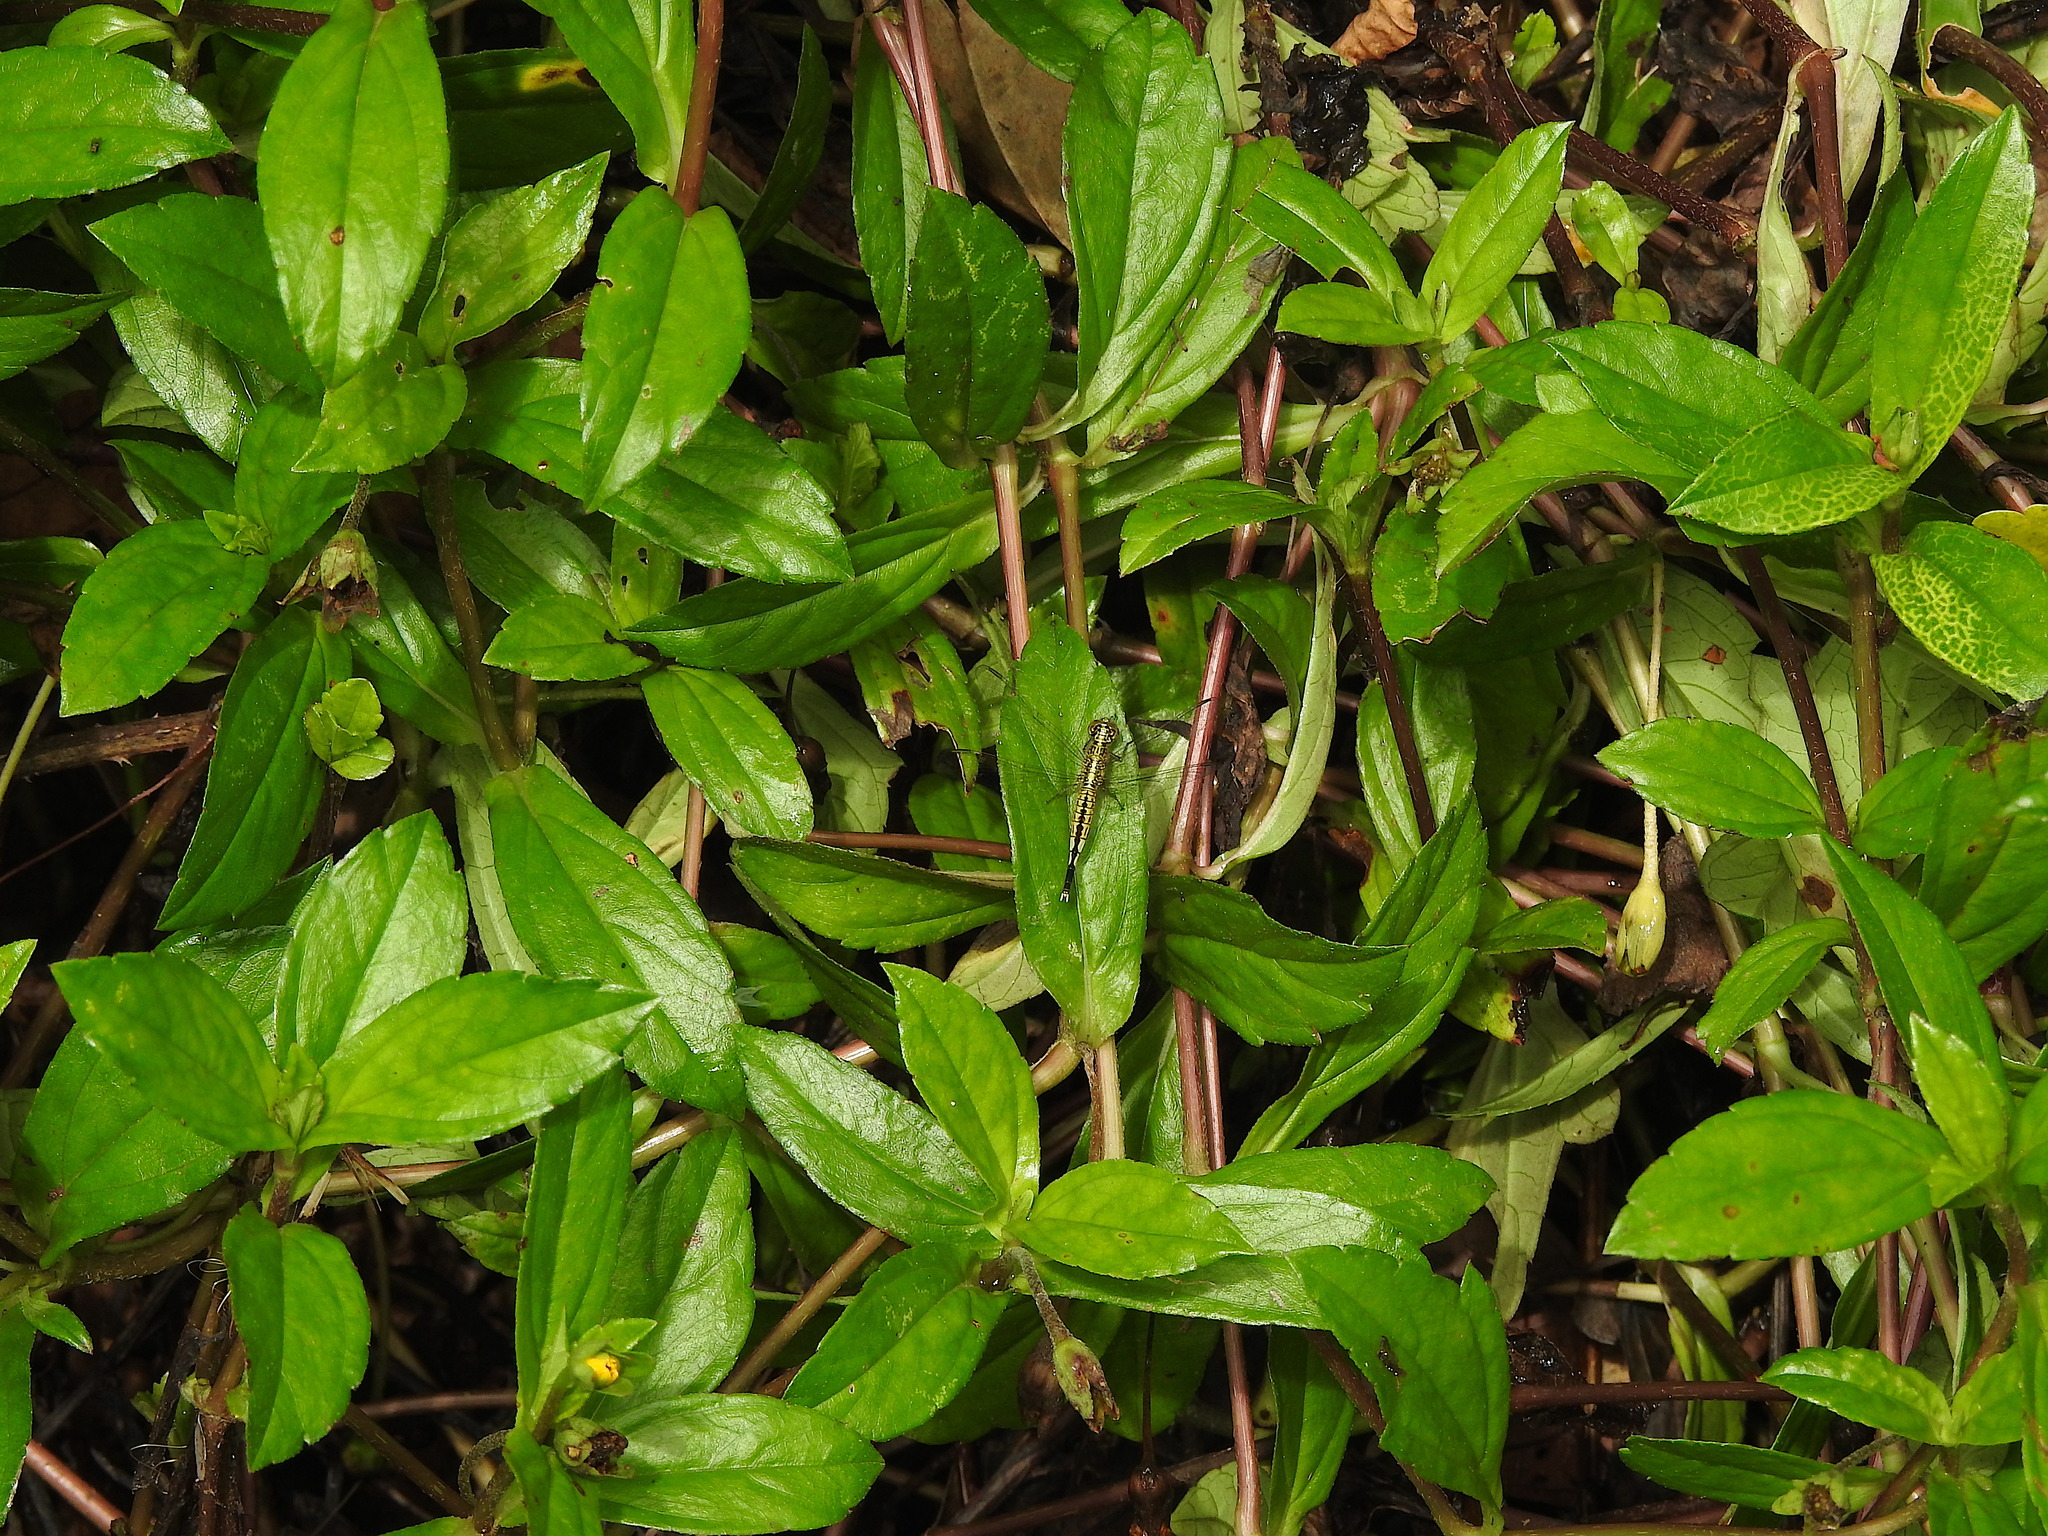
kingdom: Animalia
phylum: Arthropoda
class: Insecta
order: Odonata
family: Libellulidae
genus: Acisoma
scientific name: Acisoma panorpoides
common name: Asian pintail
